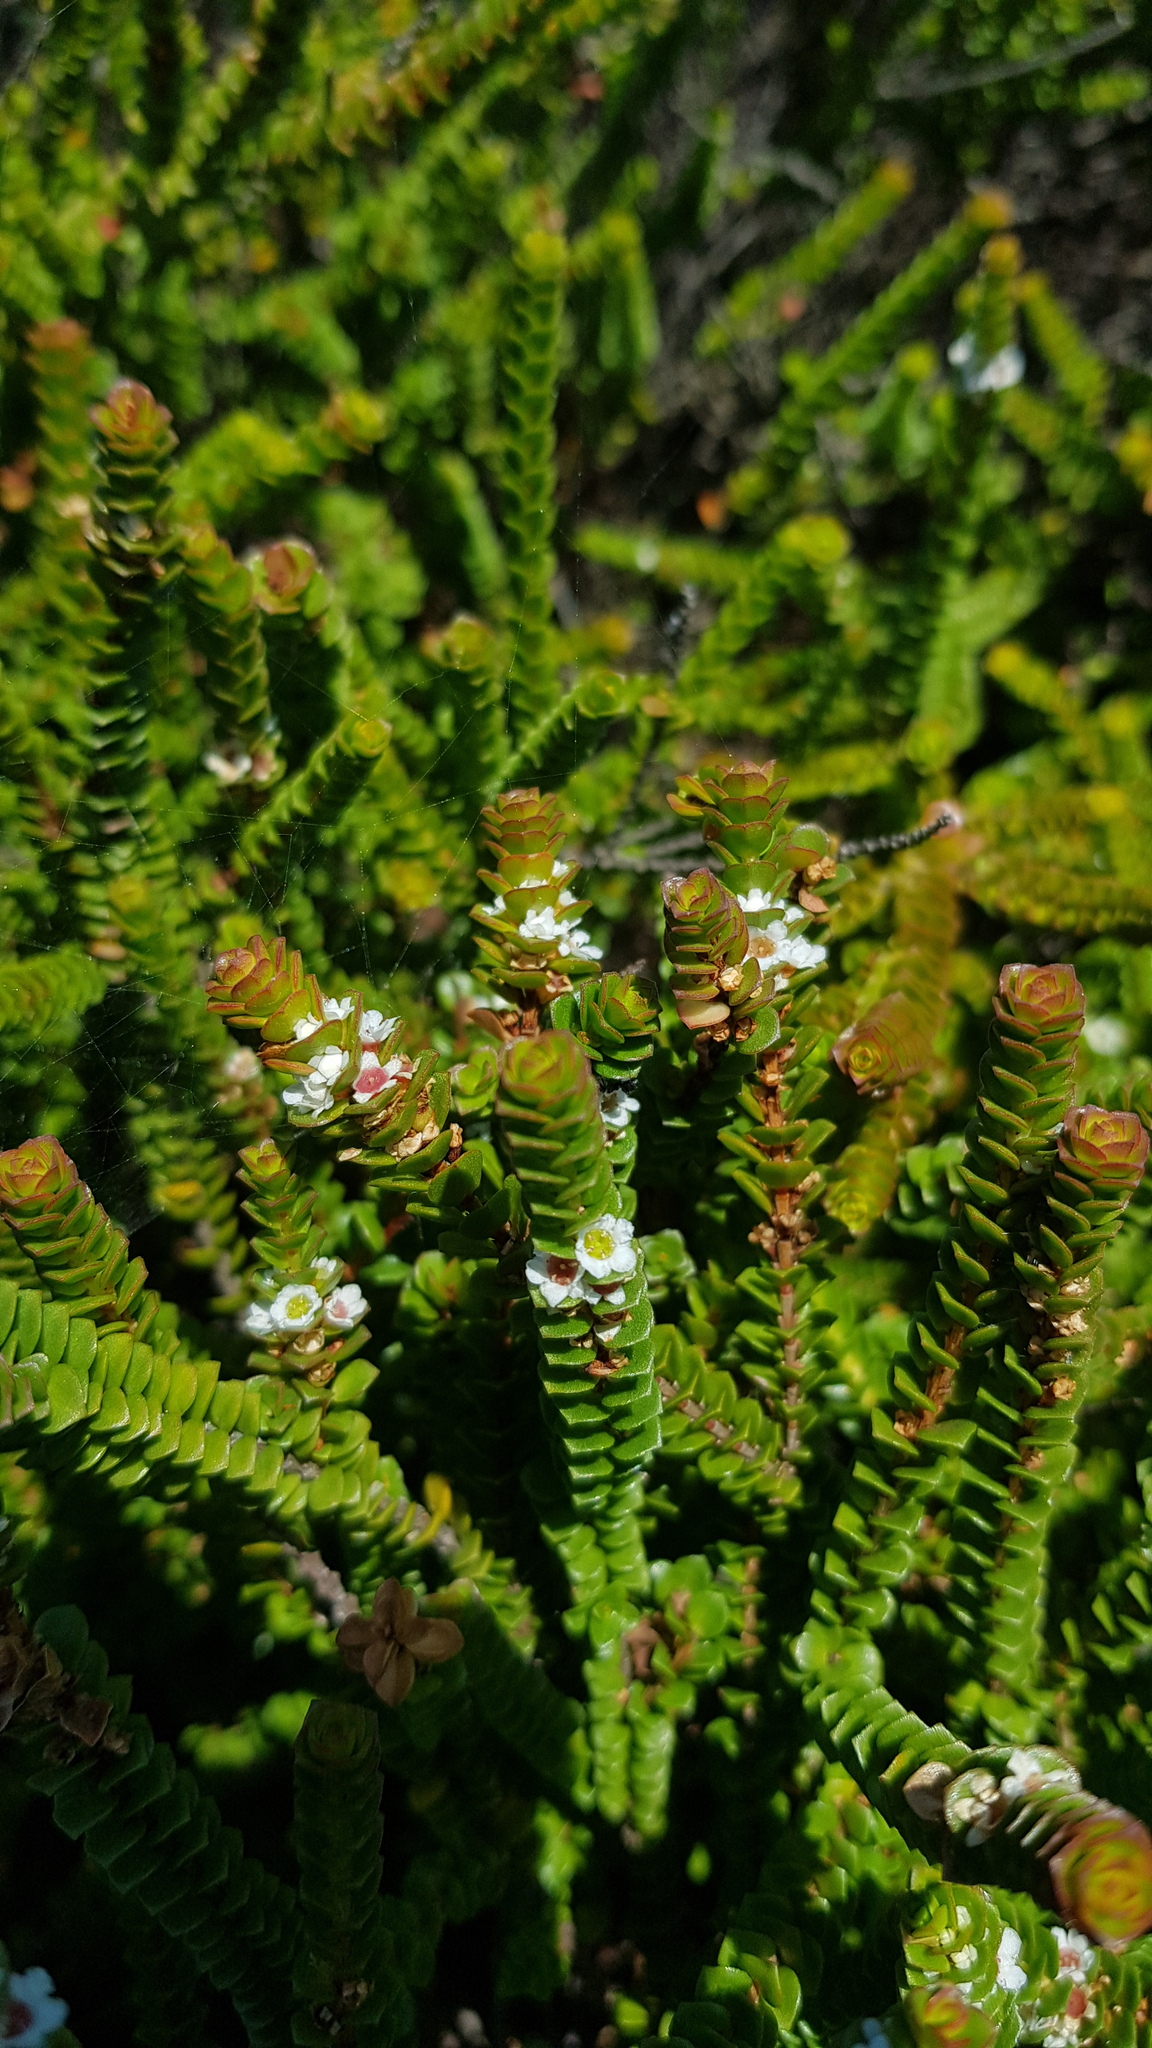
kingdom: Plantae
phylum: Tracheophyta
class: Magnoliopsida
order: Myrtales
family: Myrtaceae
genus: Baeckea
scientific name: Baeckea imbricata
